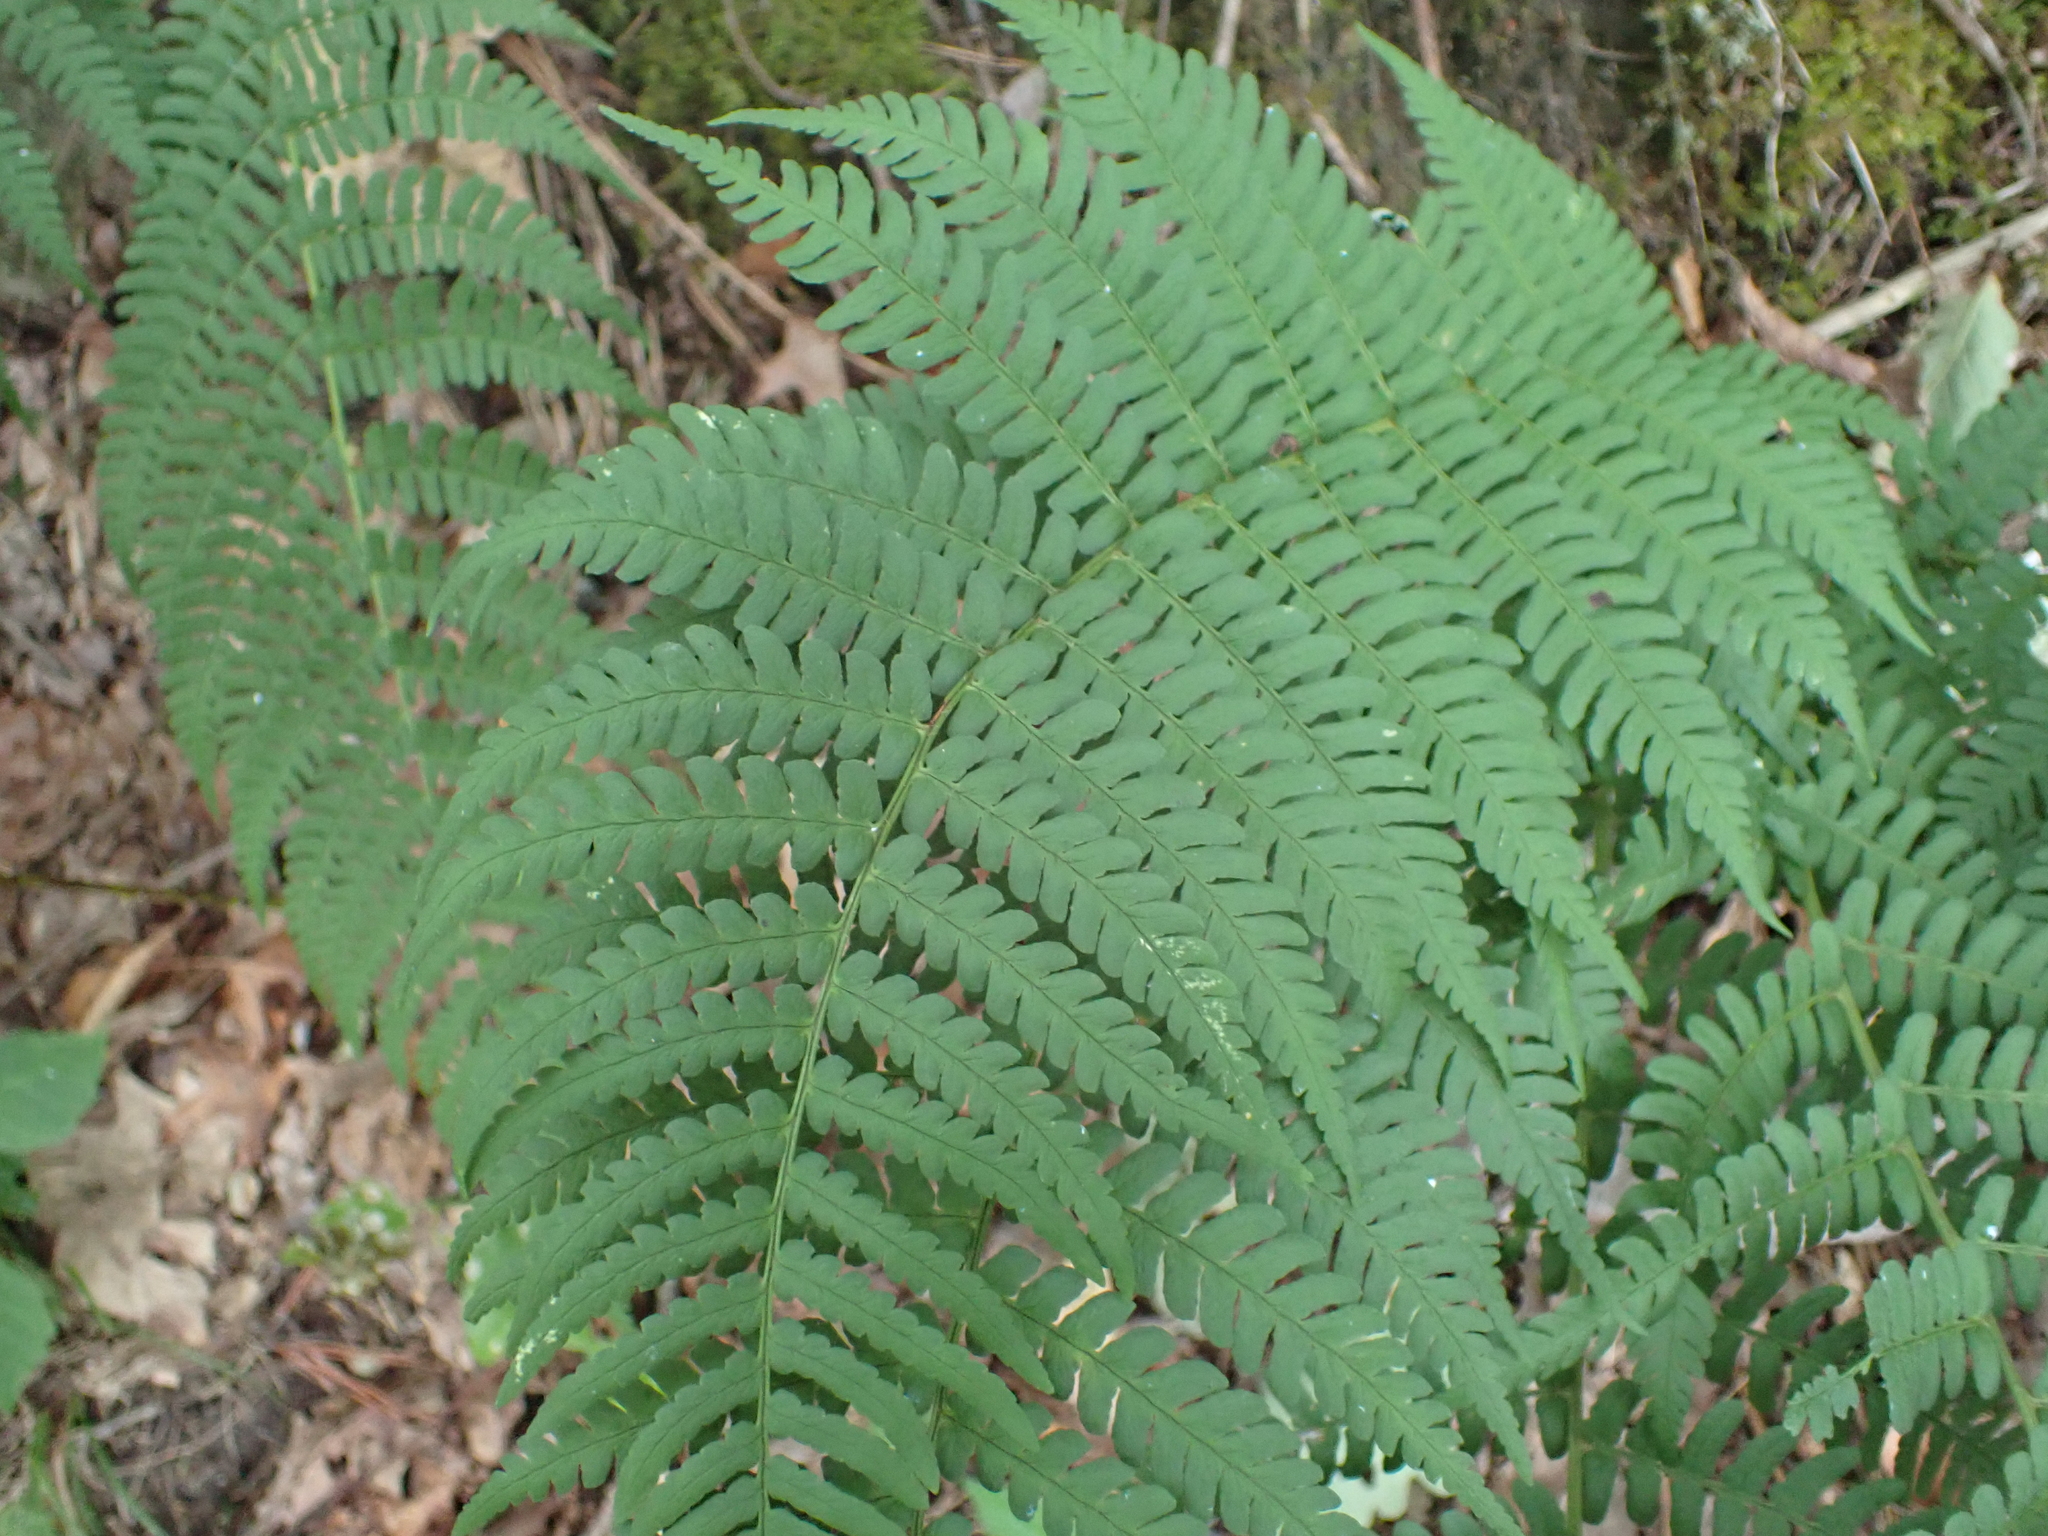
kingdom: Plantae
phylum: Tracheophyta
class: Polypodiopsida
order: Polypodiales
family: Dryopteridaceae
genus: Dryopteris
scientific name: Dryopteris marginalis
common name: Marginal wood fern
